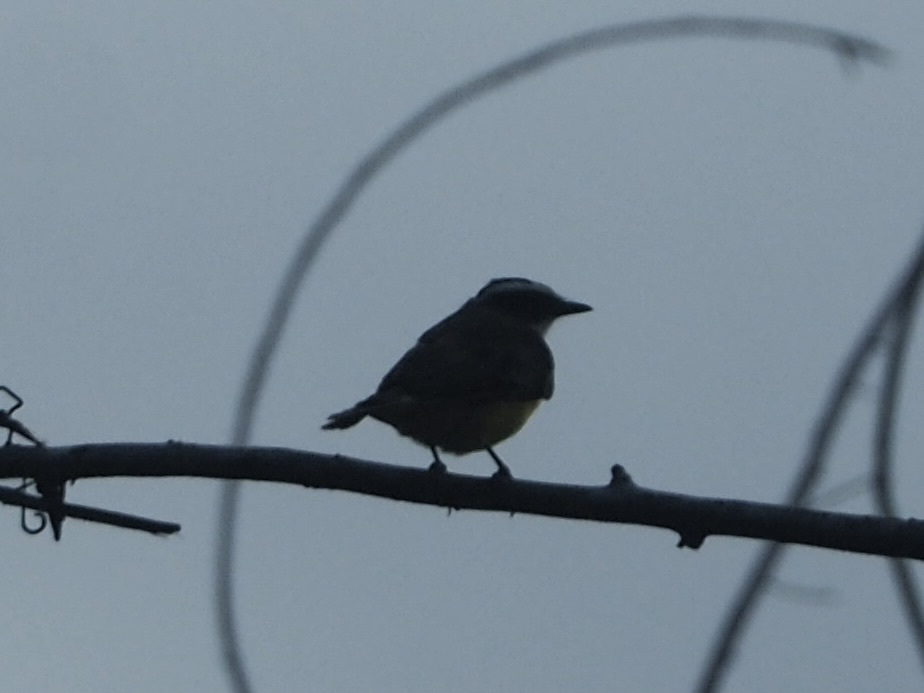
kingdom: Animalia
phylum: Chordata
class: Aves
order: Passeriformes
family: Tyrannidae
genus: Myiozetetes
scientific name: Myiozetetes cayanensis
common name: Rusty-margined flycatcher
